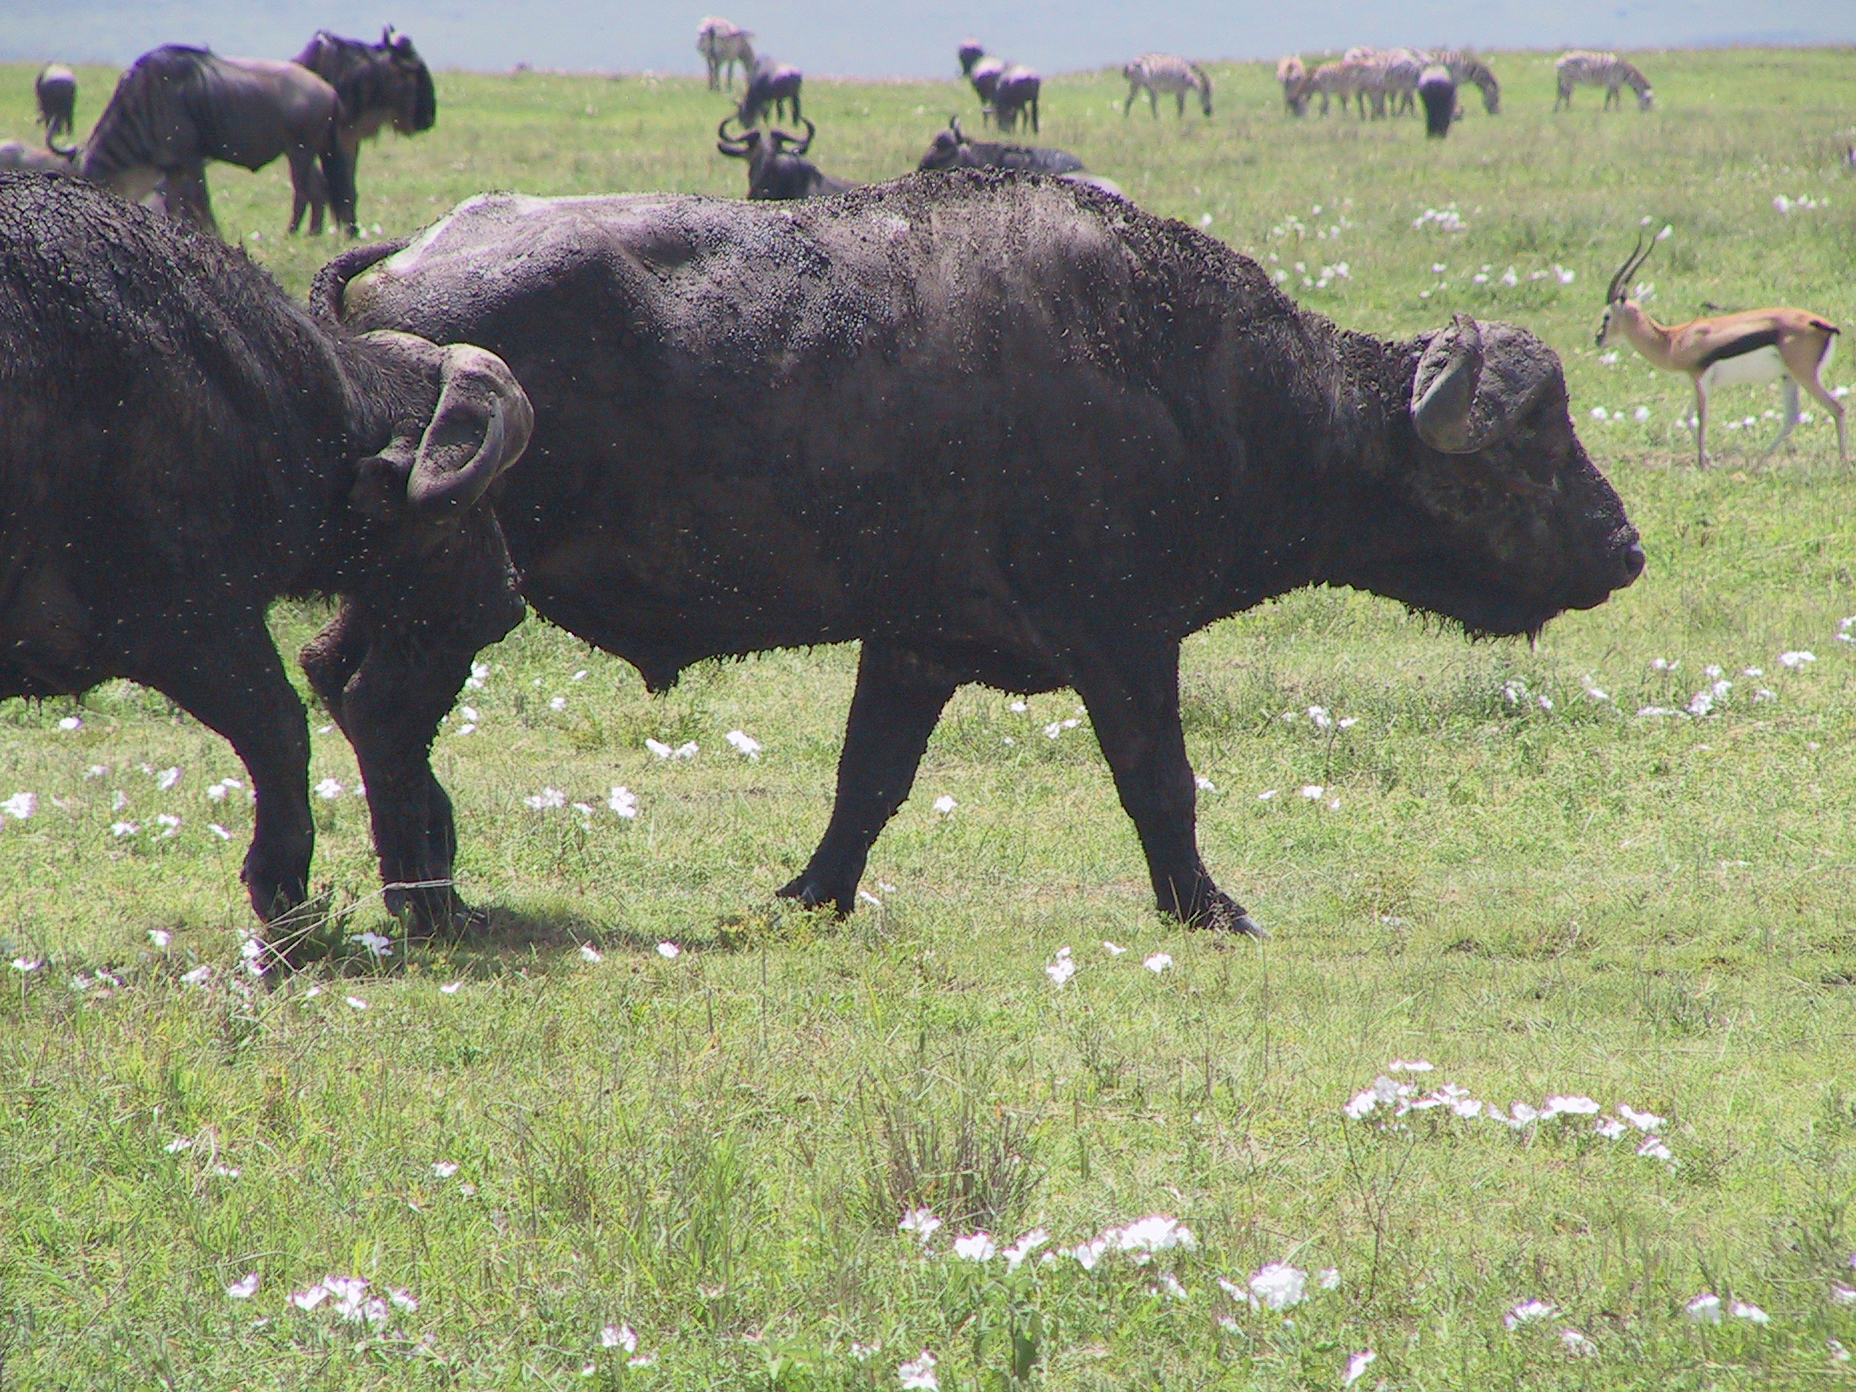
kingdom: Animalia
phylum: Chordata
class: Mammalia
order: Artiodactyla
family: Bovidae
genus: Syncerus
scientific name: Syncerus caffer
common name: African buffalo
